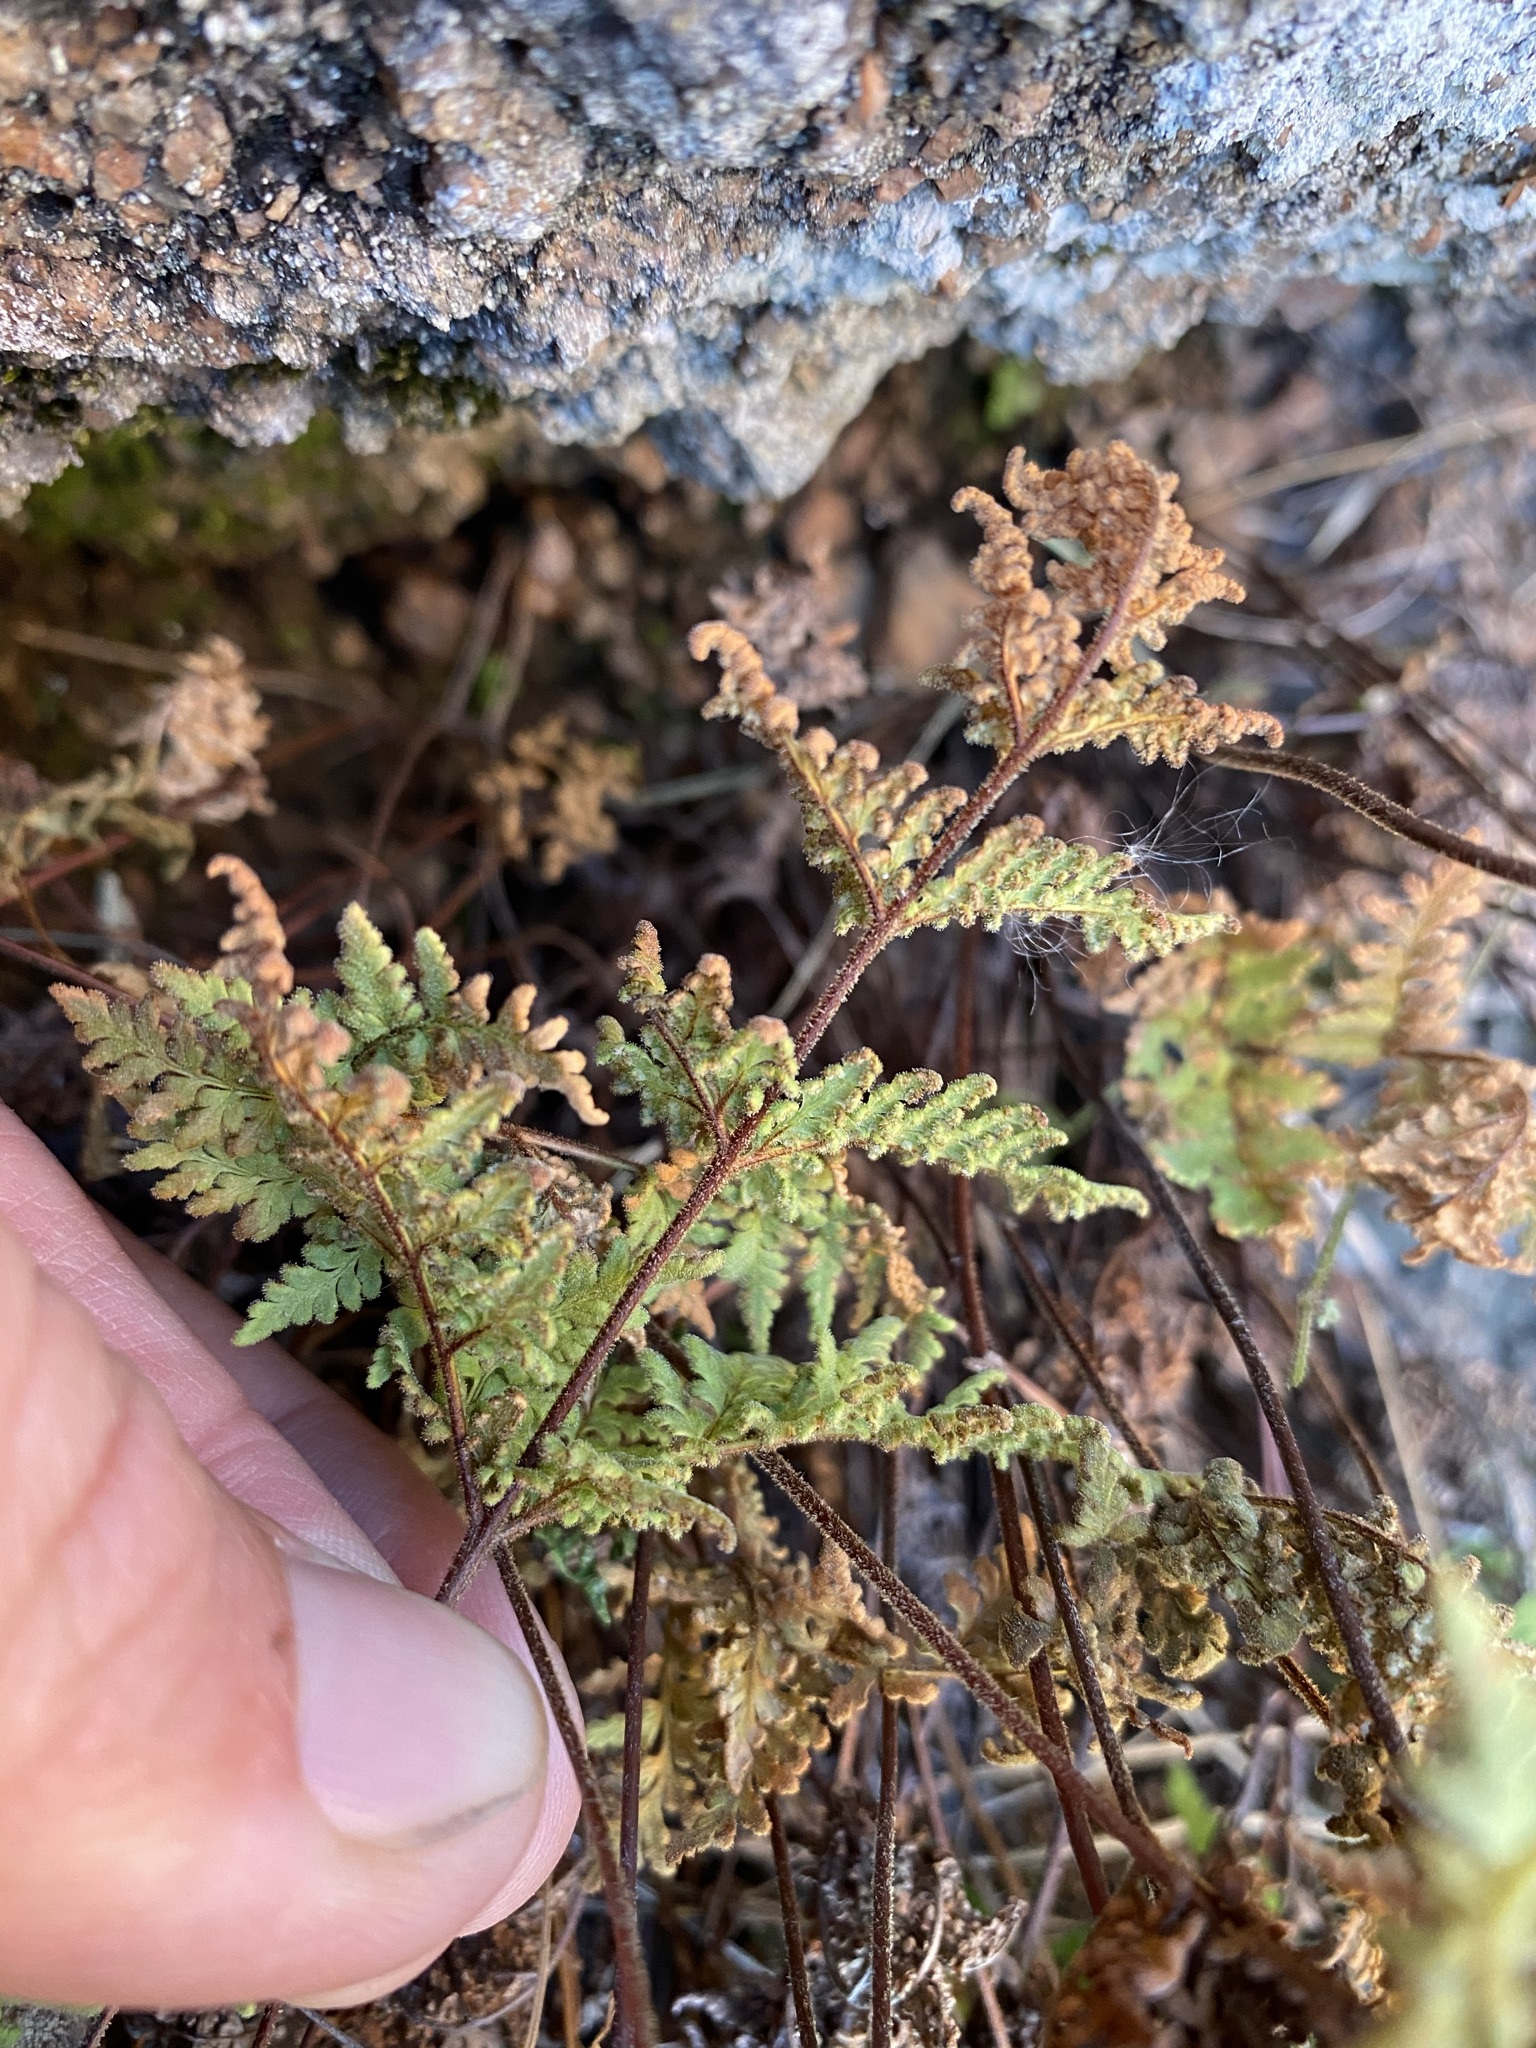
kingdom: Plantae
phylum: Tracheophyta
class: Polypodiopsida
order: Polypodiales
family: Pteridaceae
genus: Gaga
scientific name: Gaga kaulfussii
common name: Glandular lip fern
